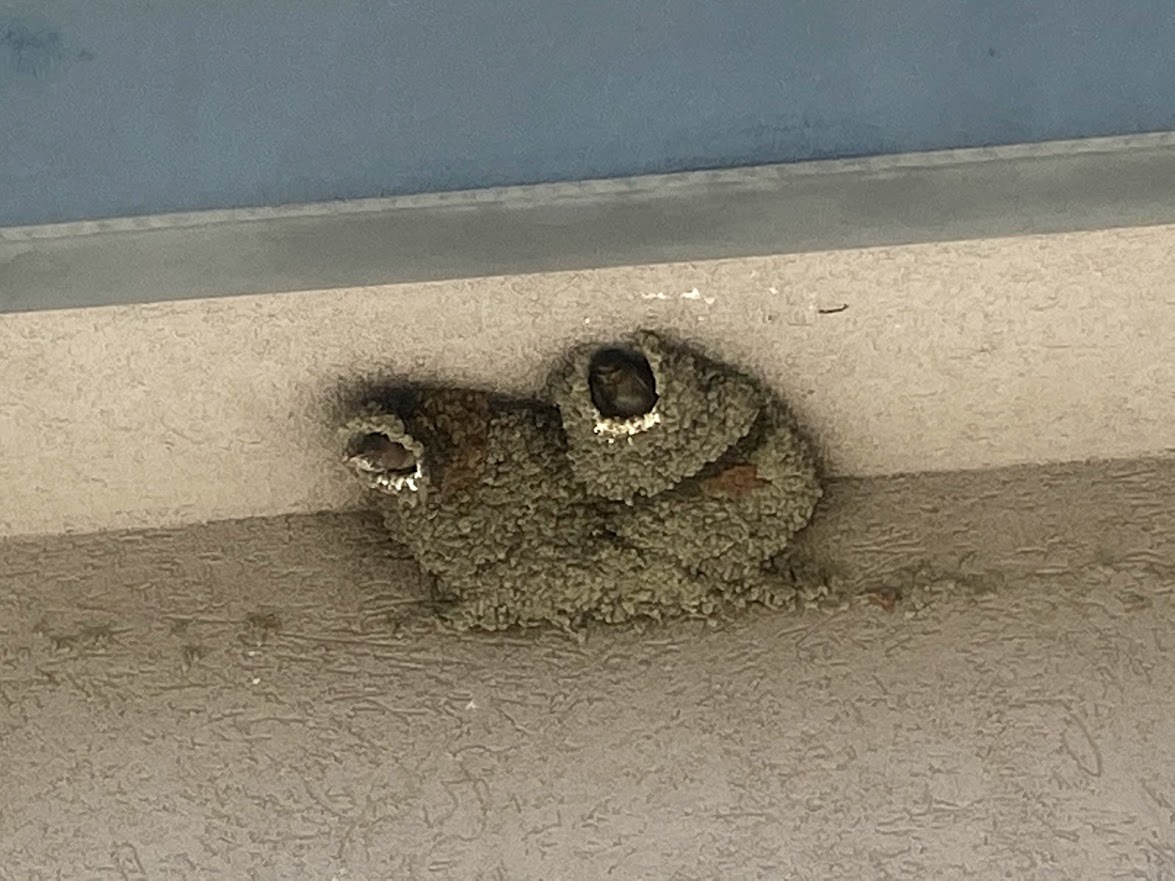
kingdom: Animalia
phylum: Chordata
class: Aves
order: Passeriformes
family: Hirundinidae
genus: Petrochelidon
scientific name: Petrochelidon pyrrhonota
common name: American cliff swallow
